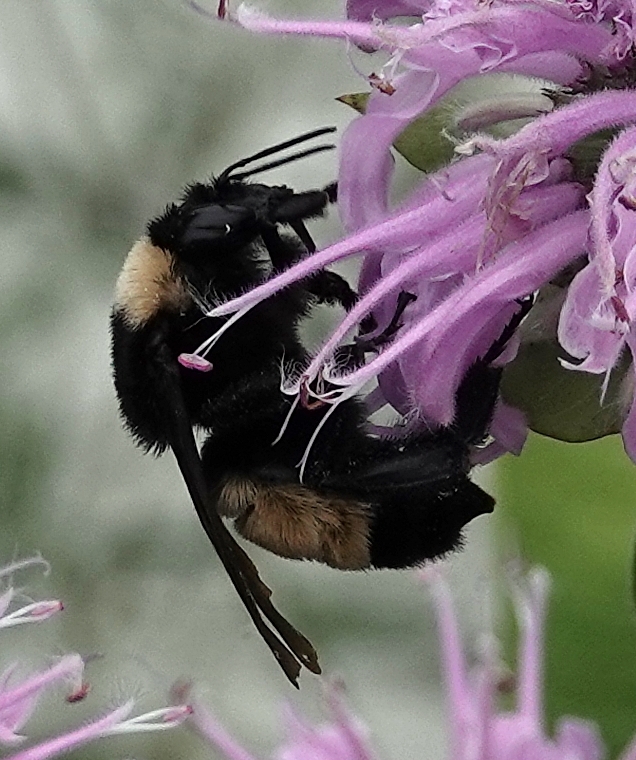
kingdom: Animalia
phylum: Arthropoda
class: Insecta
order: Hymenoptera
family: Apidae
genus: Bombus
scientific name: Bombus pensylvanicus
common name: Bumble bee
